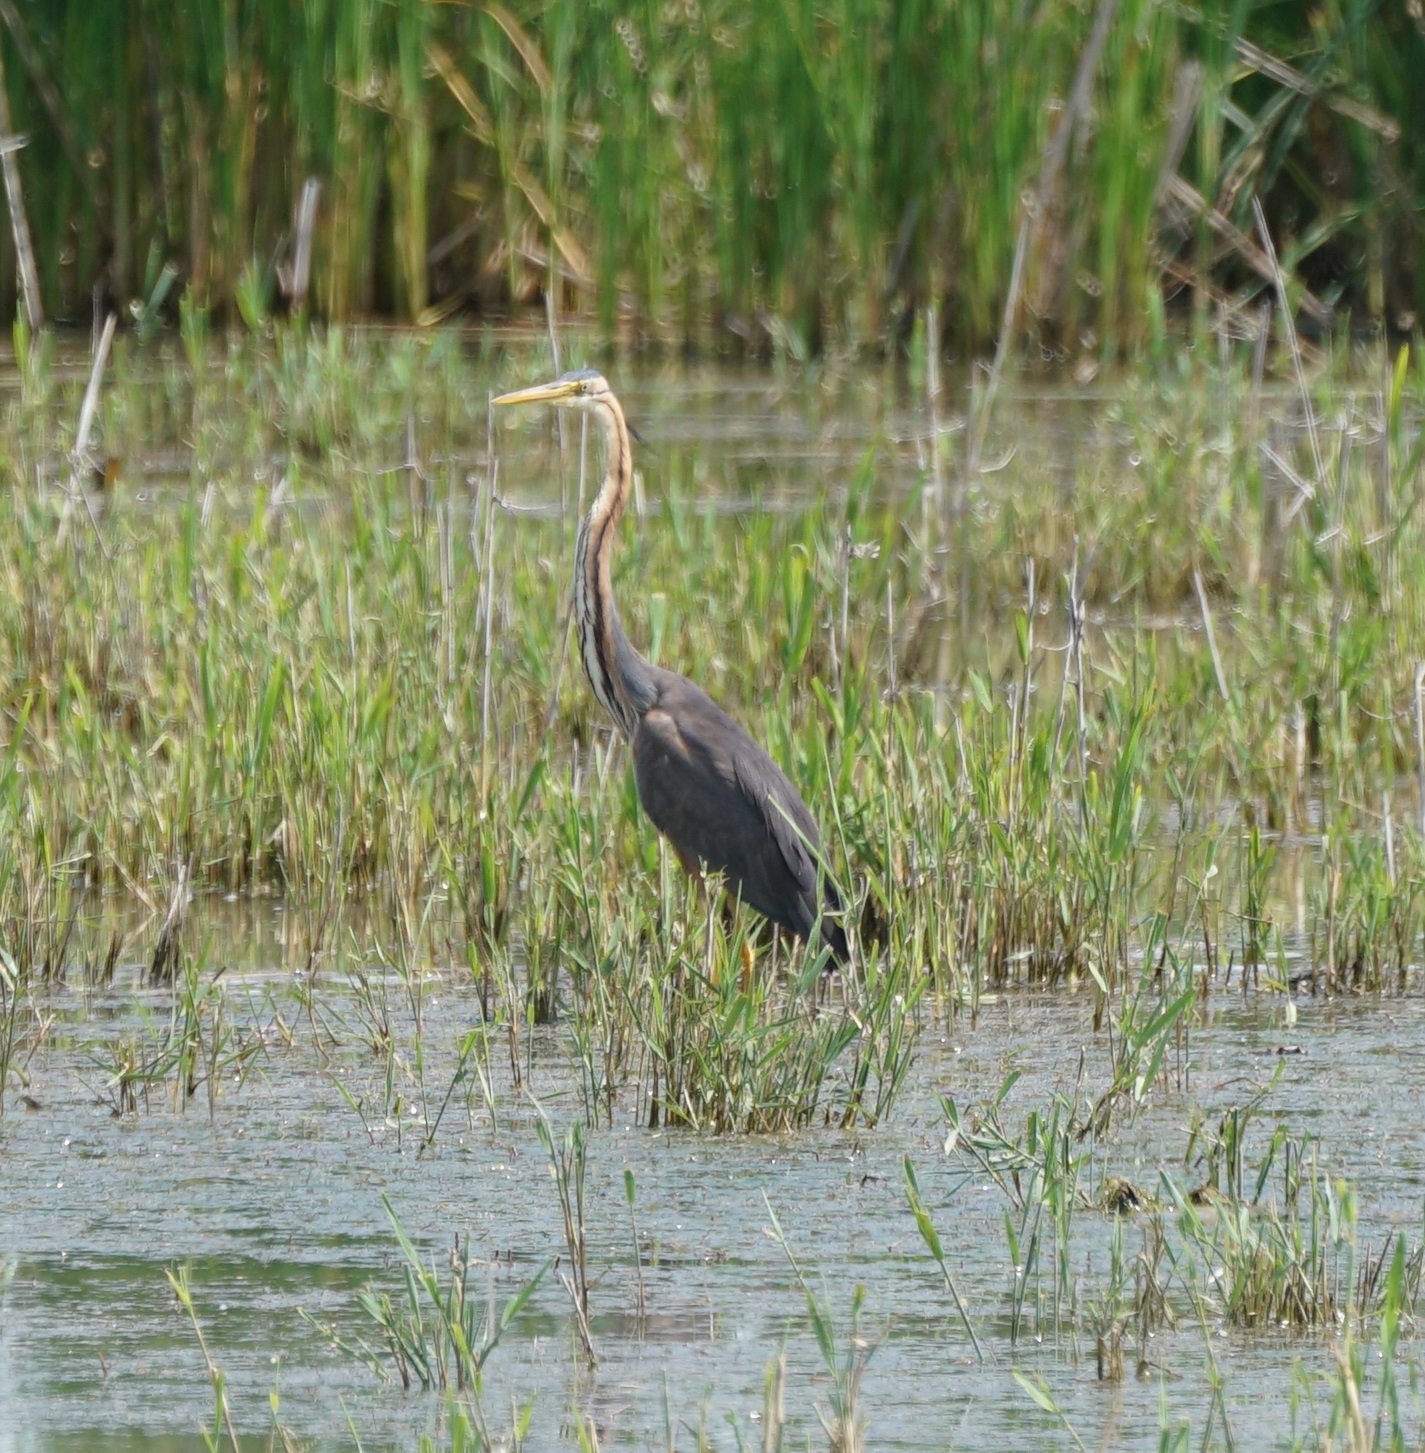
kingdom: Animalia
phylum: Chordata
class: Aves
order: Pelecaniformes
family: Ardeidae
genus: Ardea
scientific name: Ardea purpurea
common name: Purple heron
